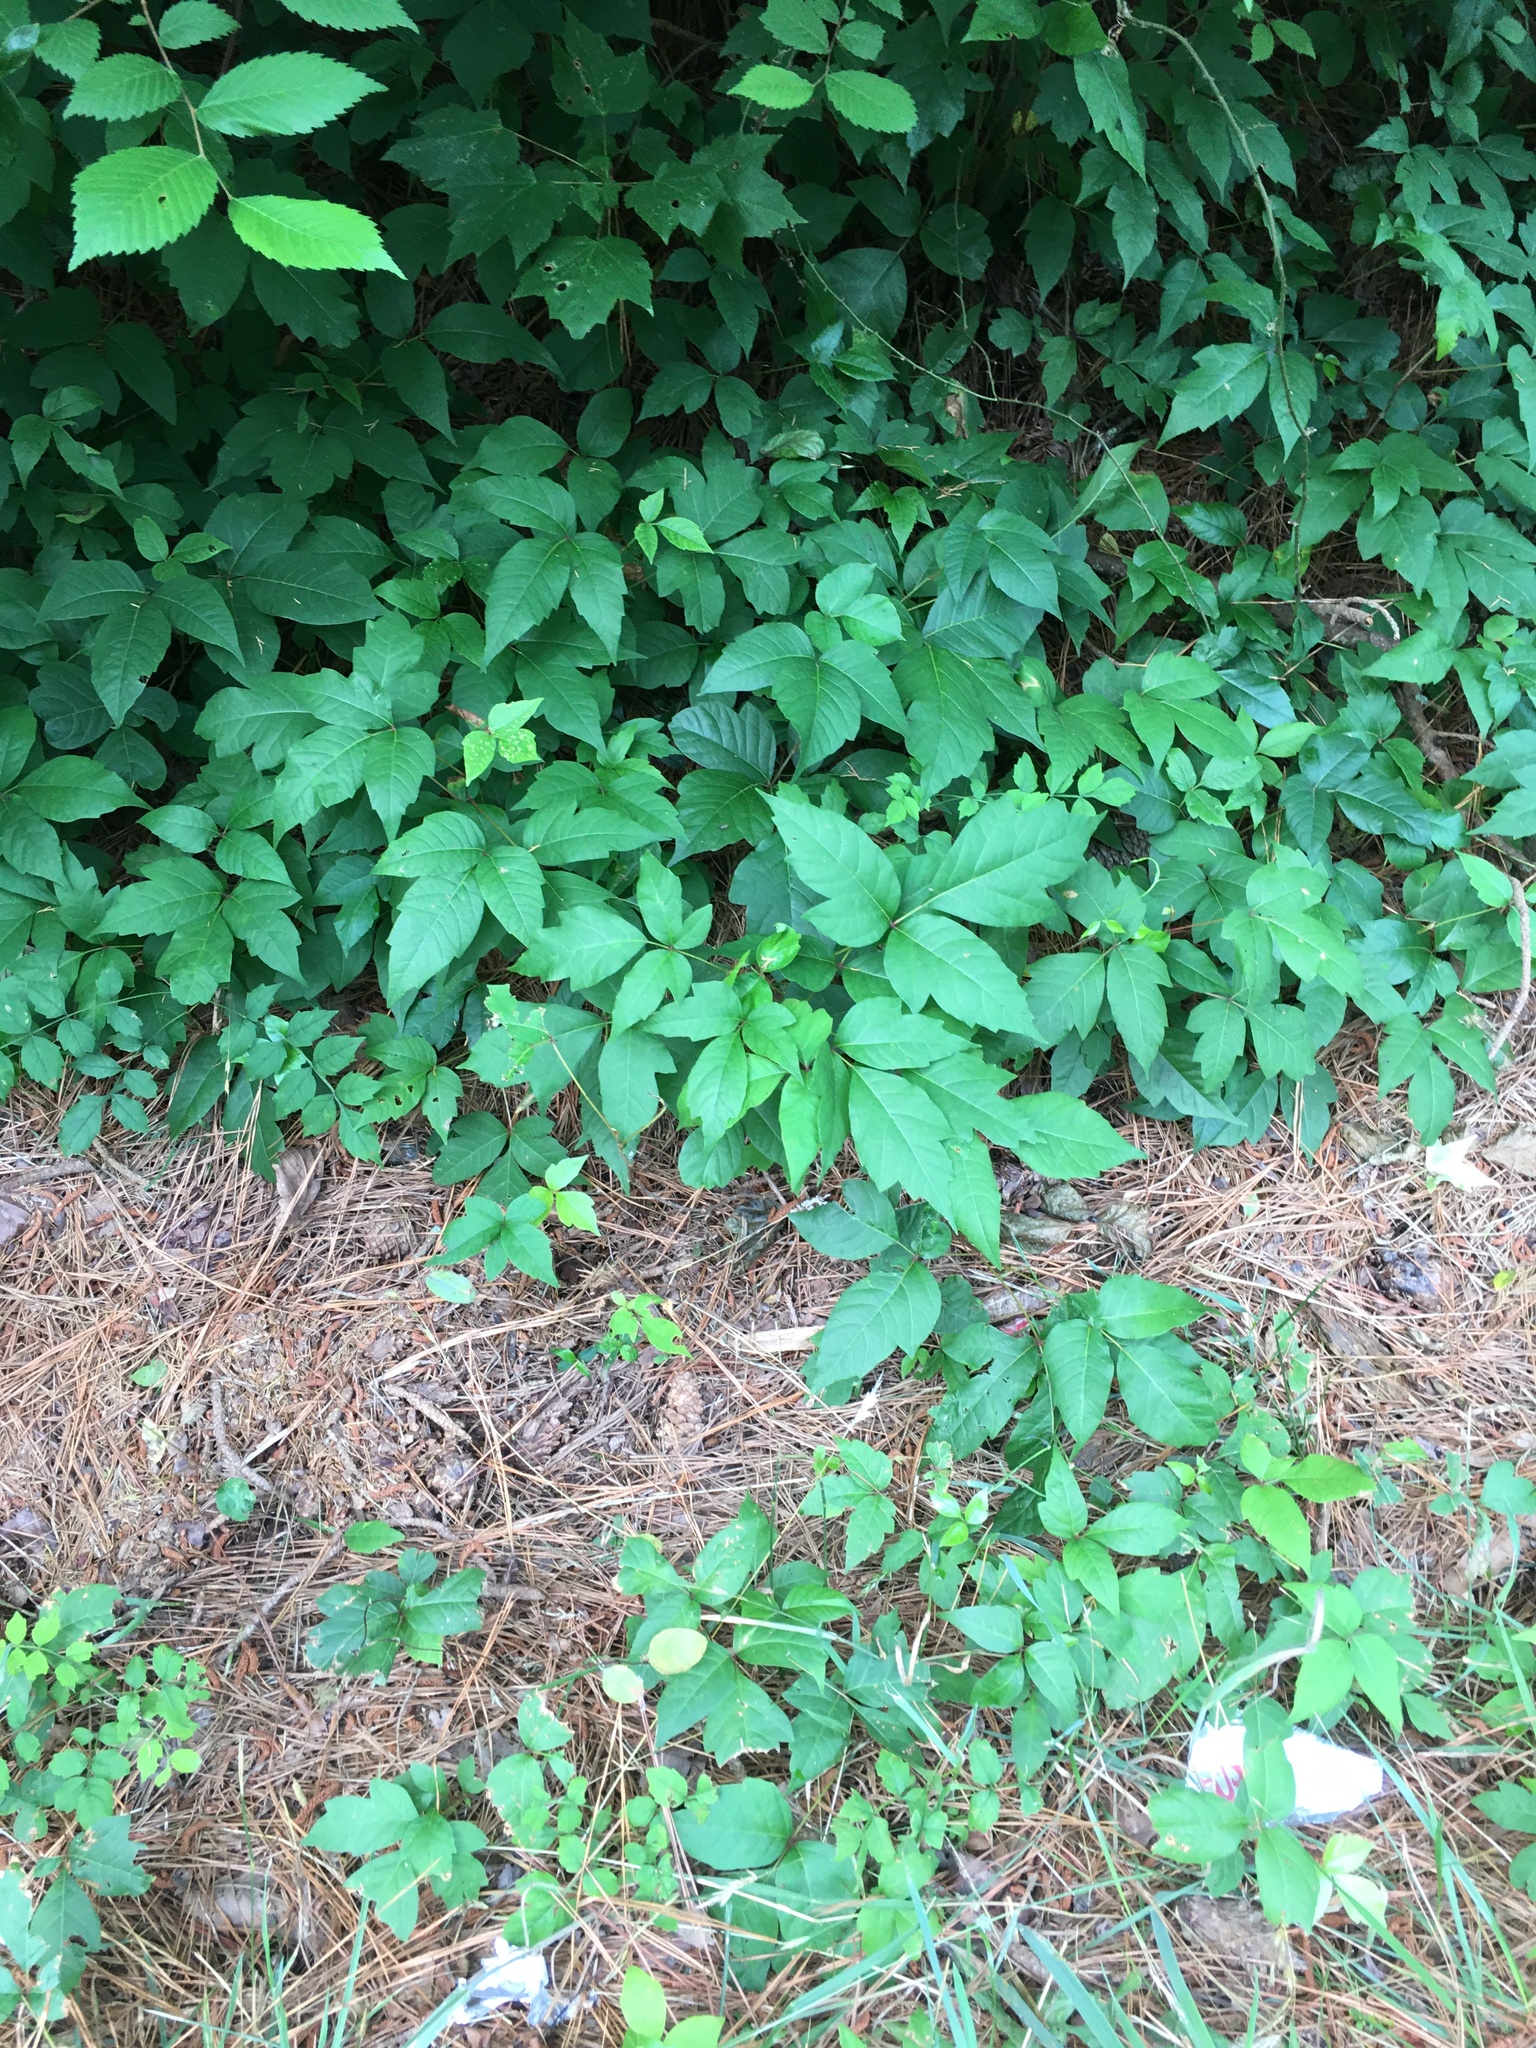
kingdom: Plantae
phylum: Tracheophyta
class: Magnoliopsida
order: Sapindales
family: Anacardiaceae
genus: Toxicodendron
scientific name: Toxicodendron radicans
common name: Poison ivy
